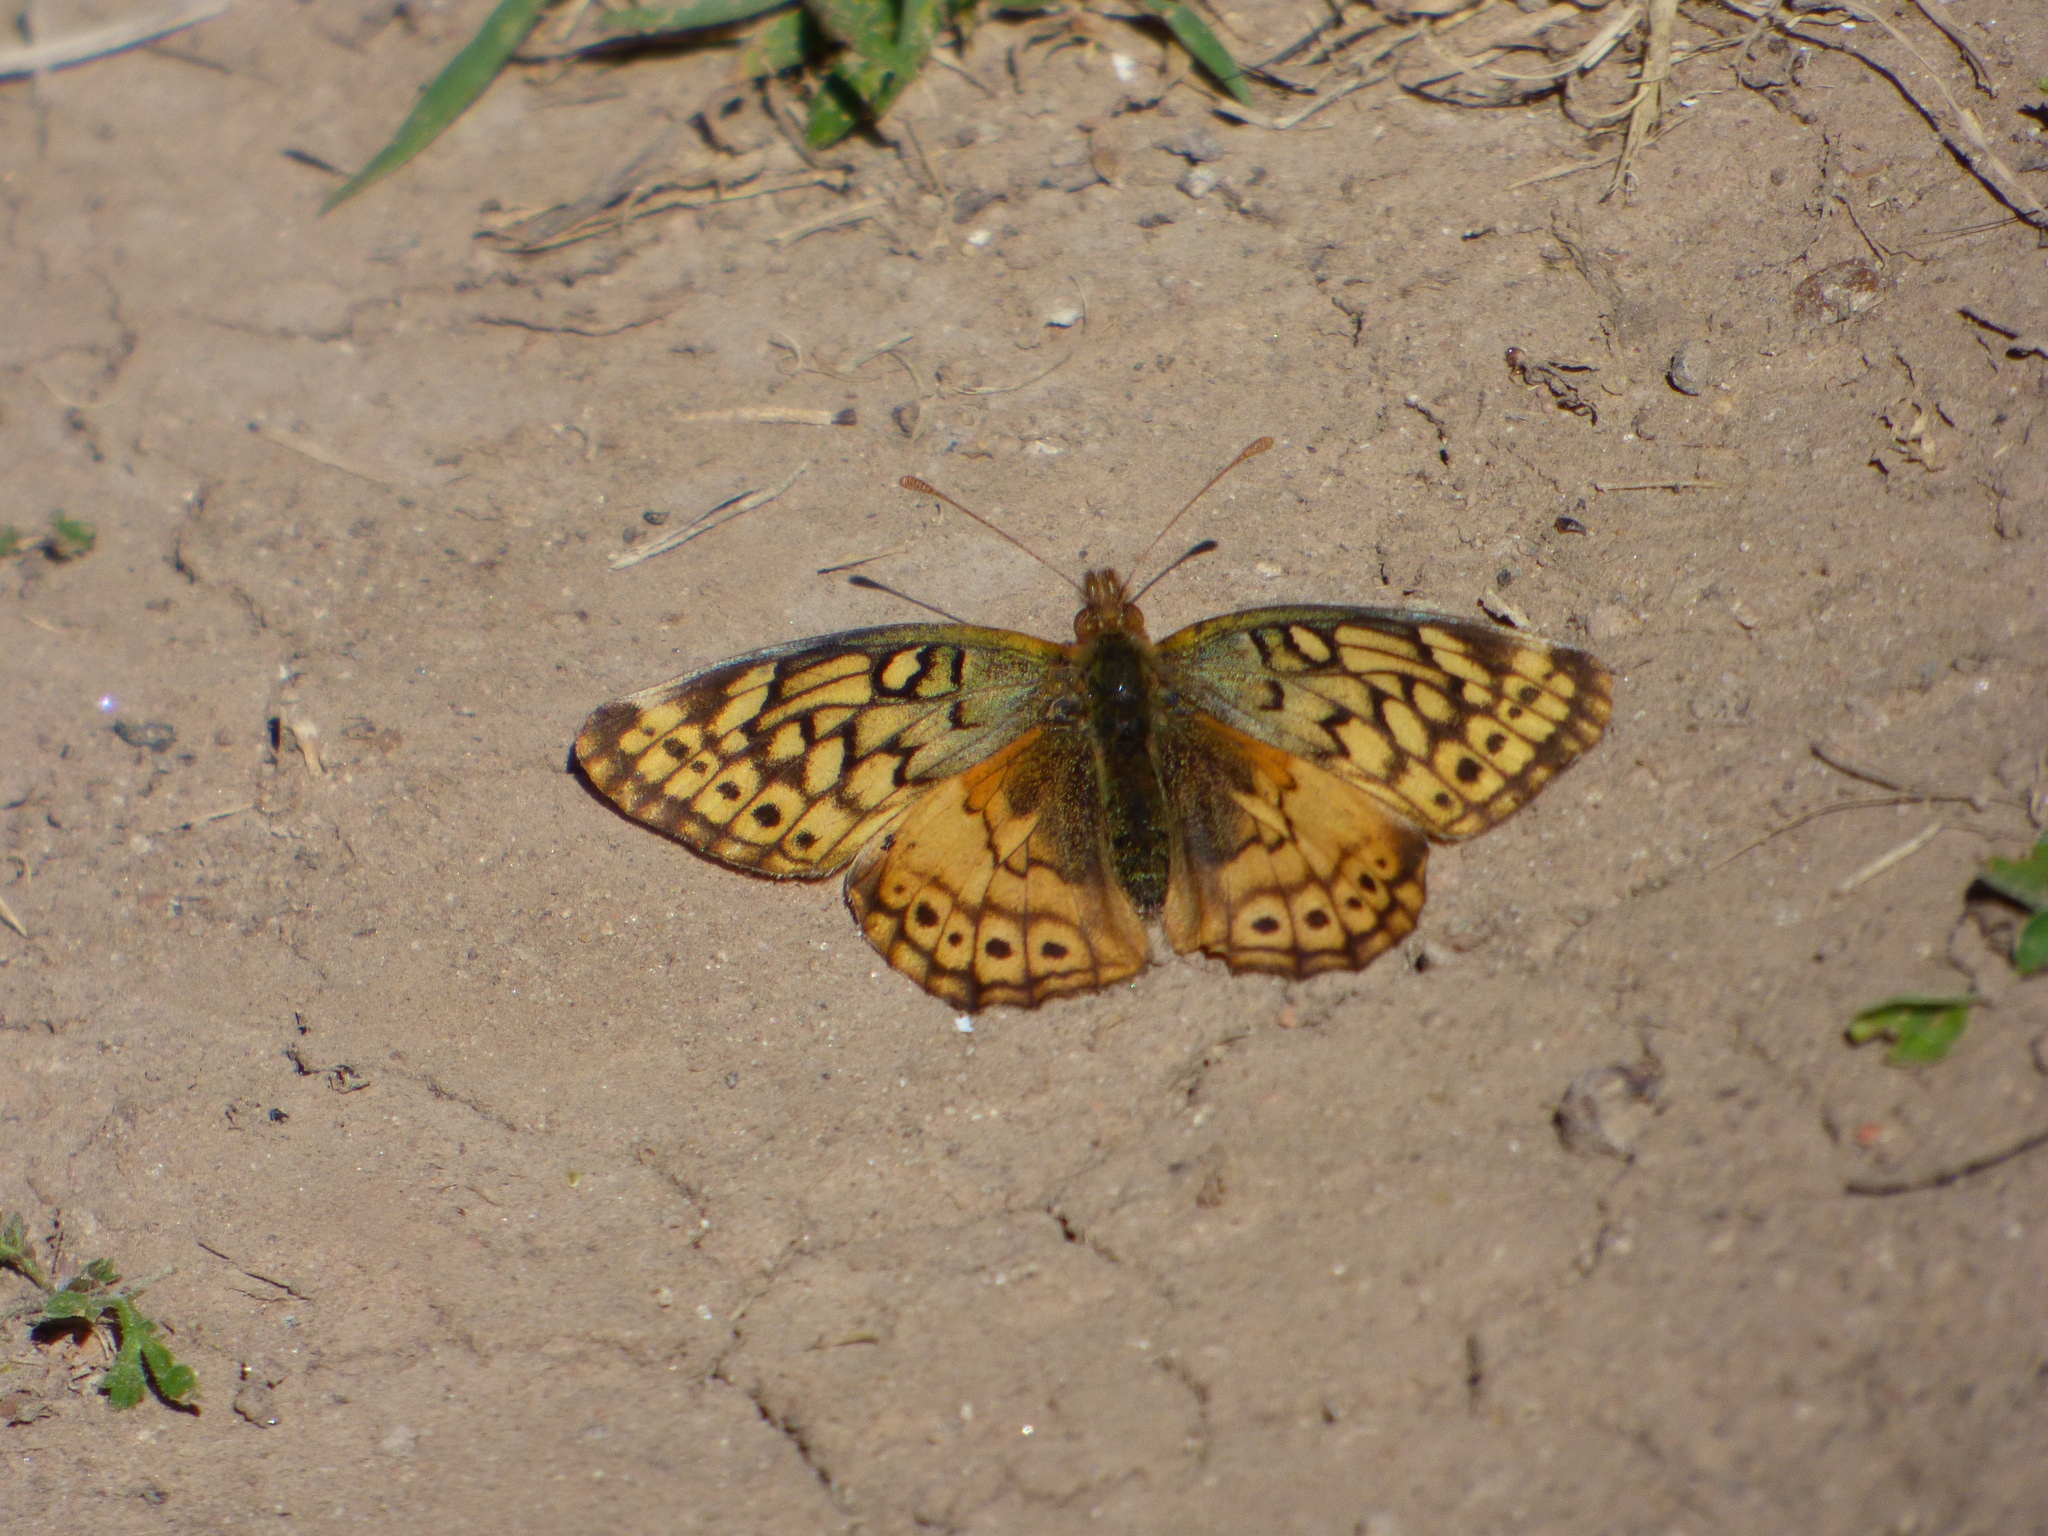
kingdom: Animalia
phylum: Arthropoda
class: Insecta
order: Lepidoptera
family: Nymphalidae
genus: Euptoieta
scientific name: Euptoieta hortensia
